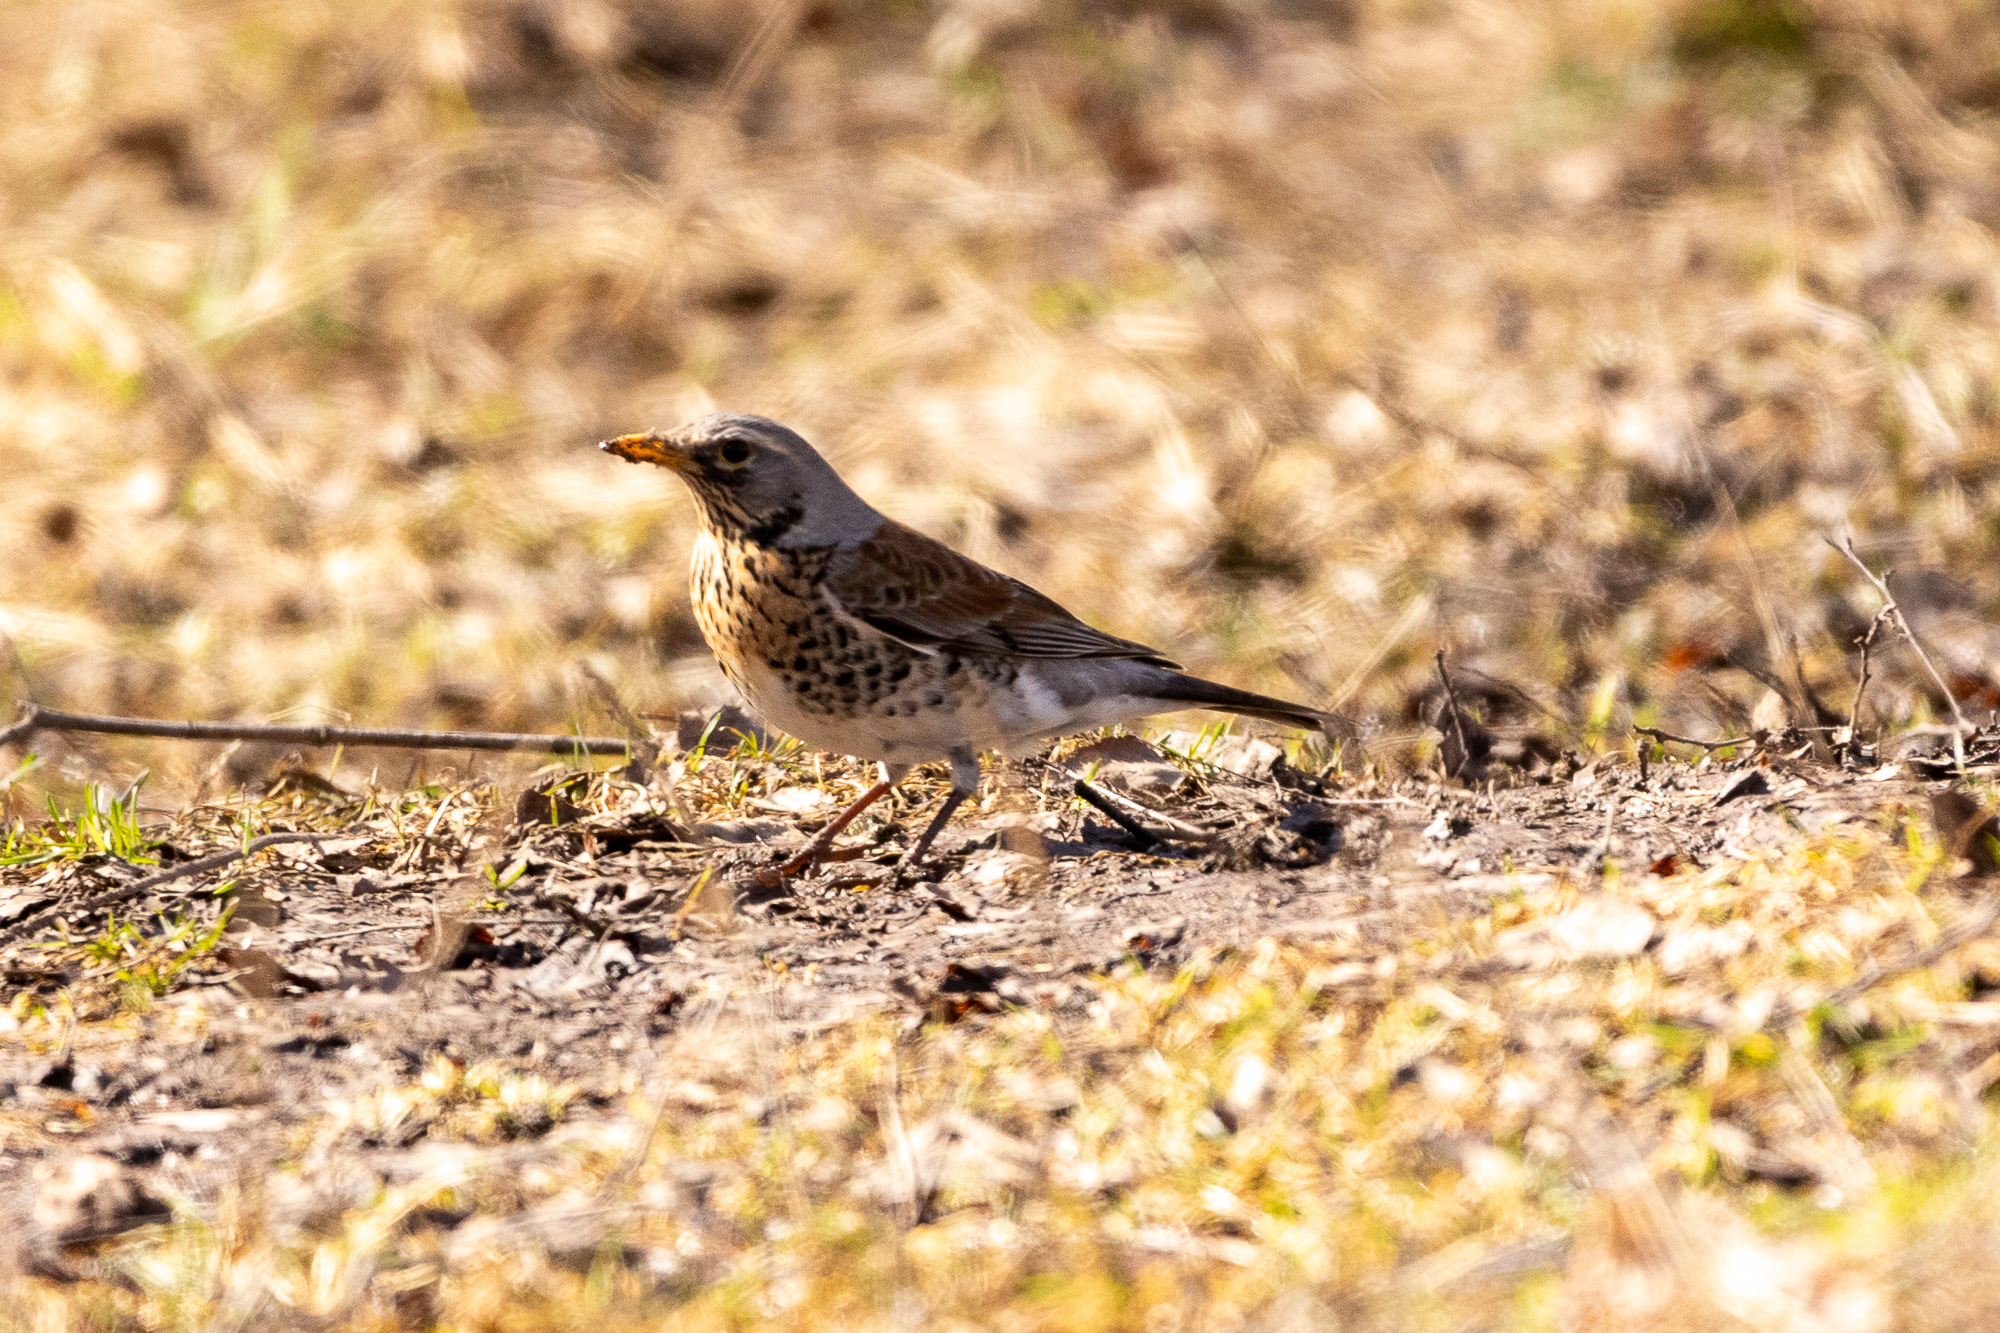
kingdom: Animalia
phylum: Chordata
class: Aves
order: Passeriformes
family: Turdidae
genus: Turdus
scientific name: Turdus pilaris
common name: Fieldfare
